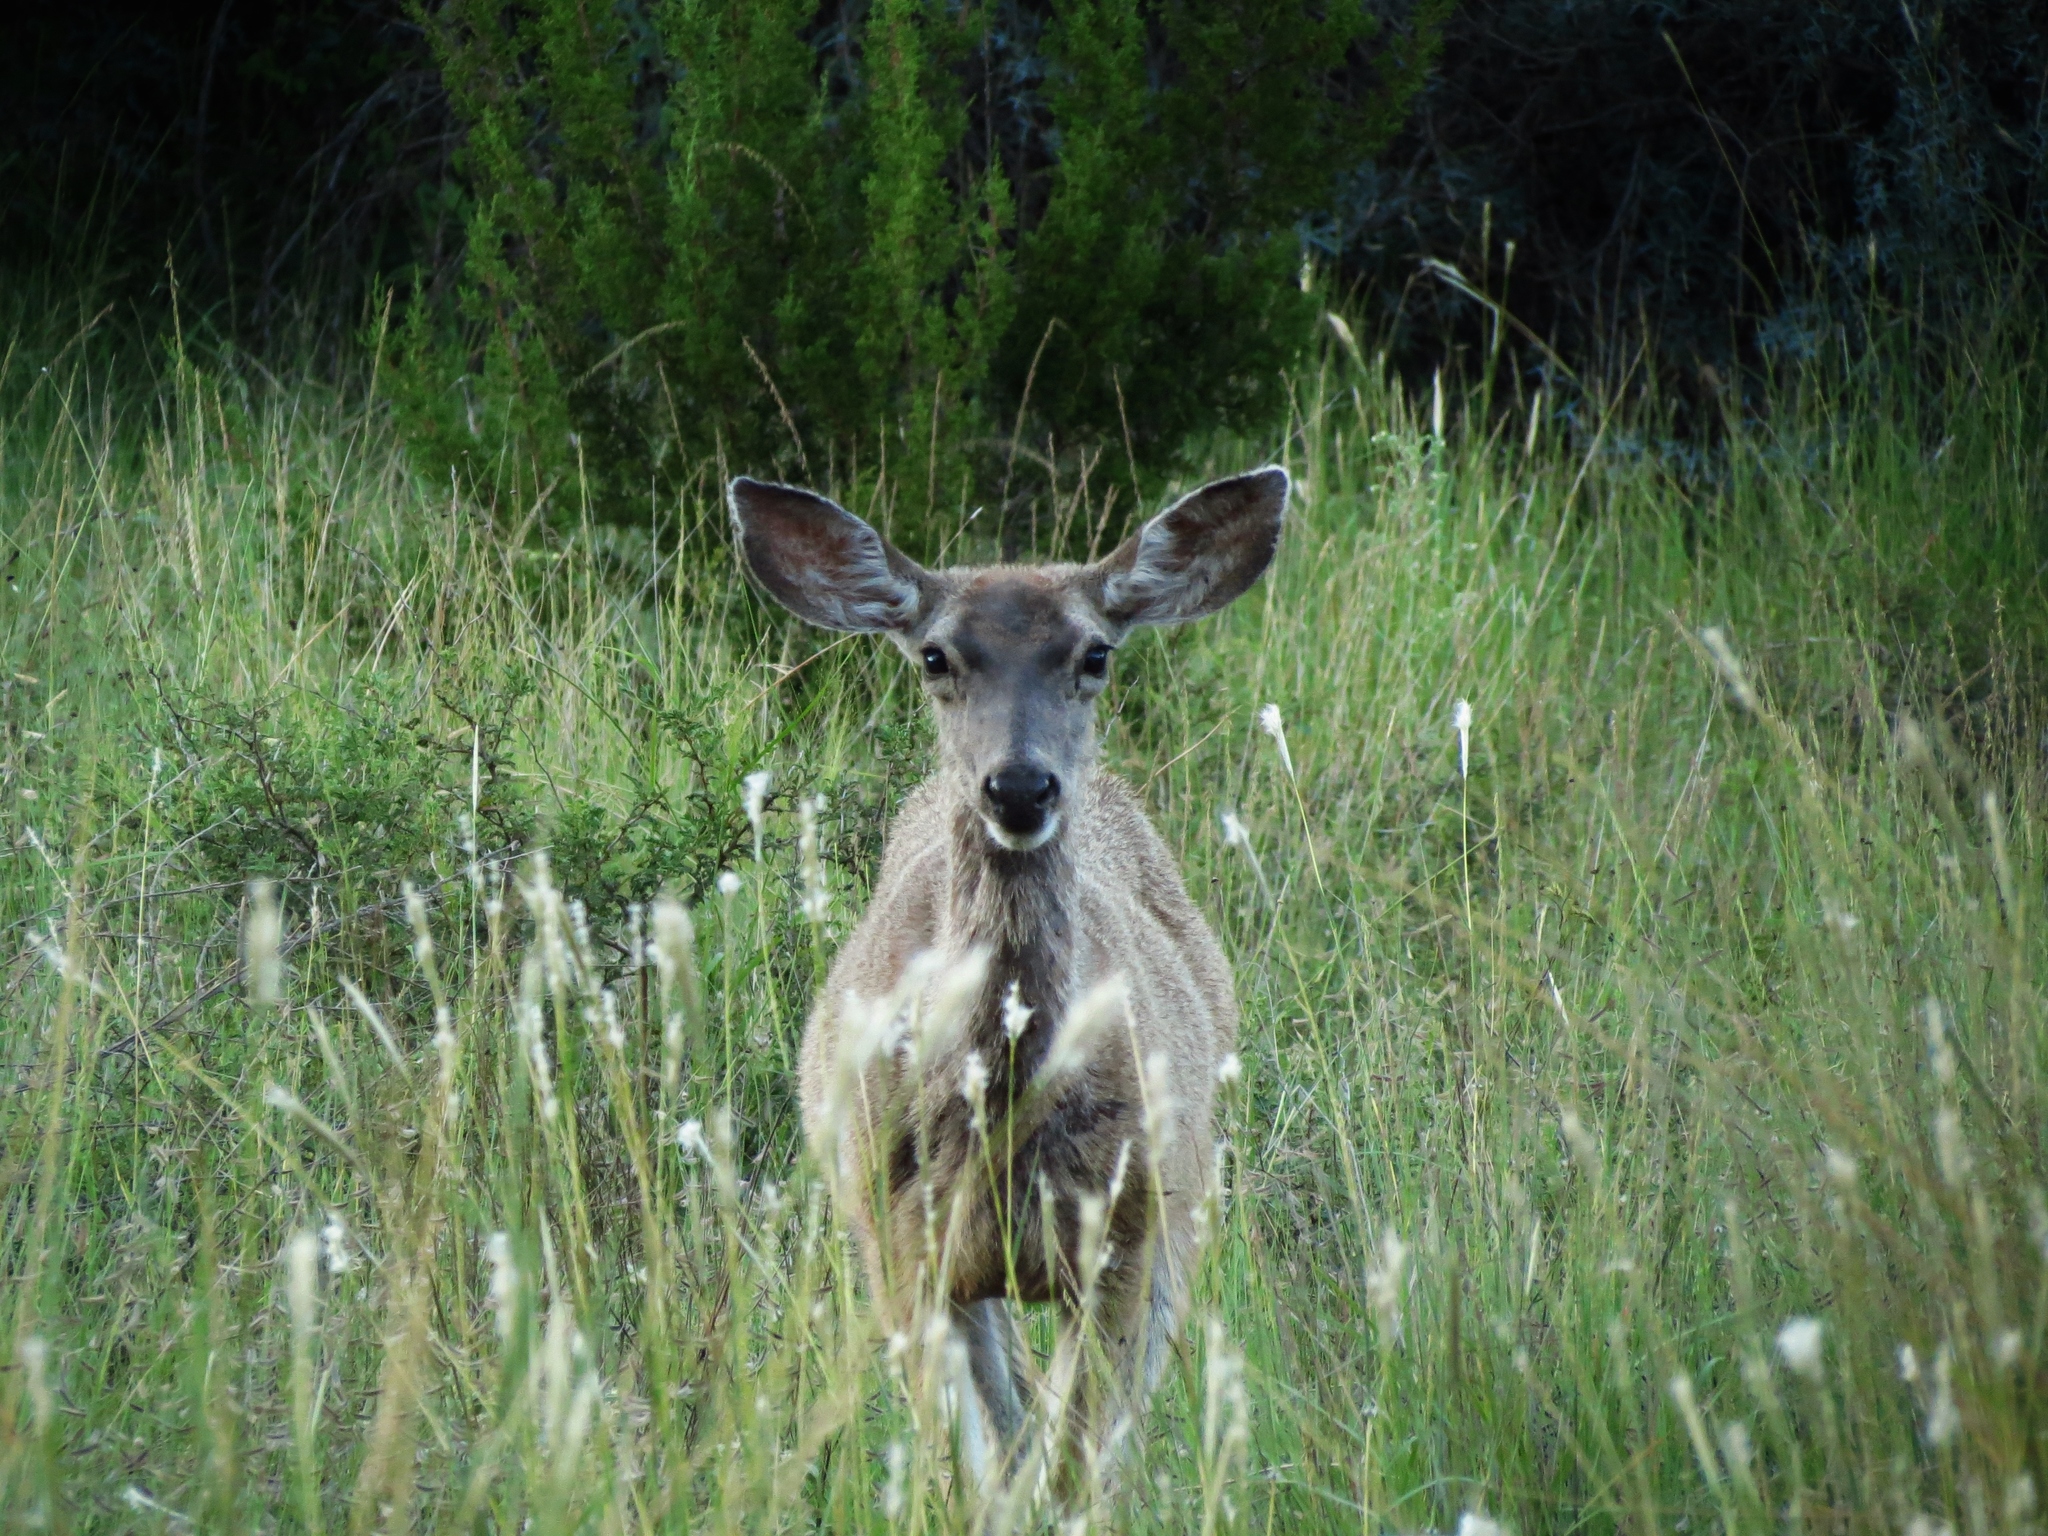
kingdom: Animalia
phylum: Chordata
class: Mammalia
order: Artiodactyla
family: Cervidae
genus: Odocoileus
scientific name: Odocoileus hemionus
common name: Mule deer
